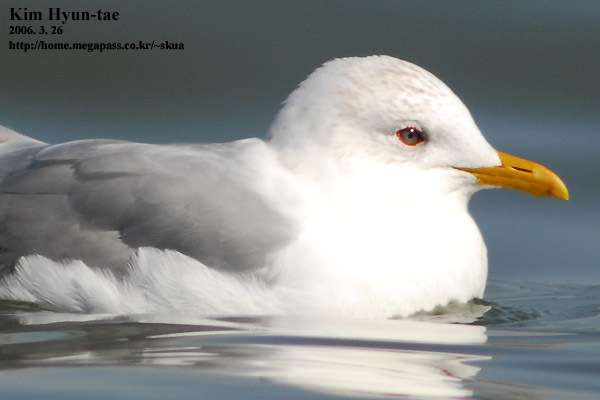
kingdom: Animalia
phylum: Chordata
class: Aves
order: Charadriiformes
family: Laridae
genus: Larus
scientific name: Larus canus
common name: Mew gull
